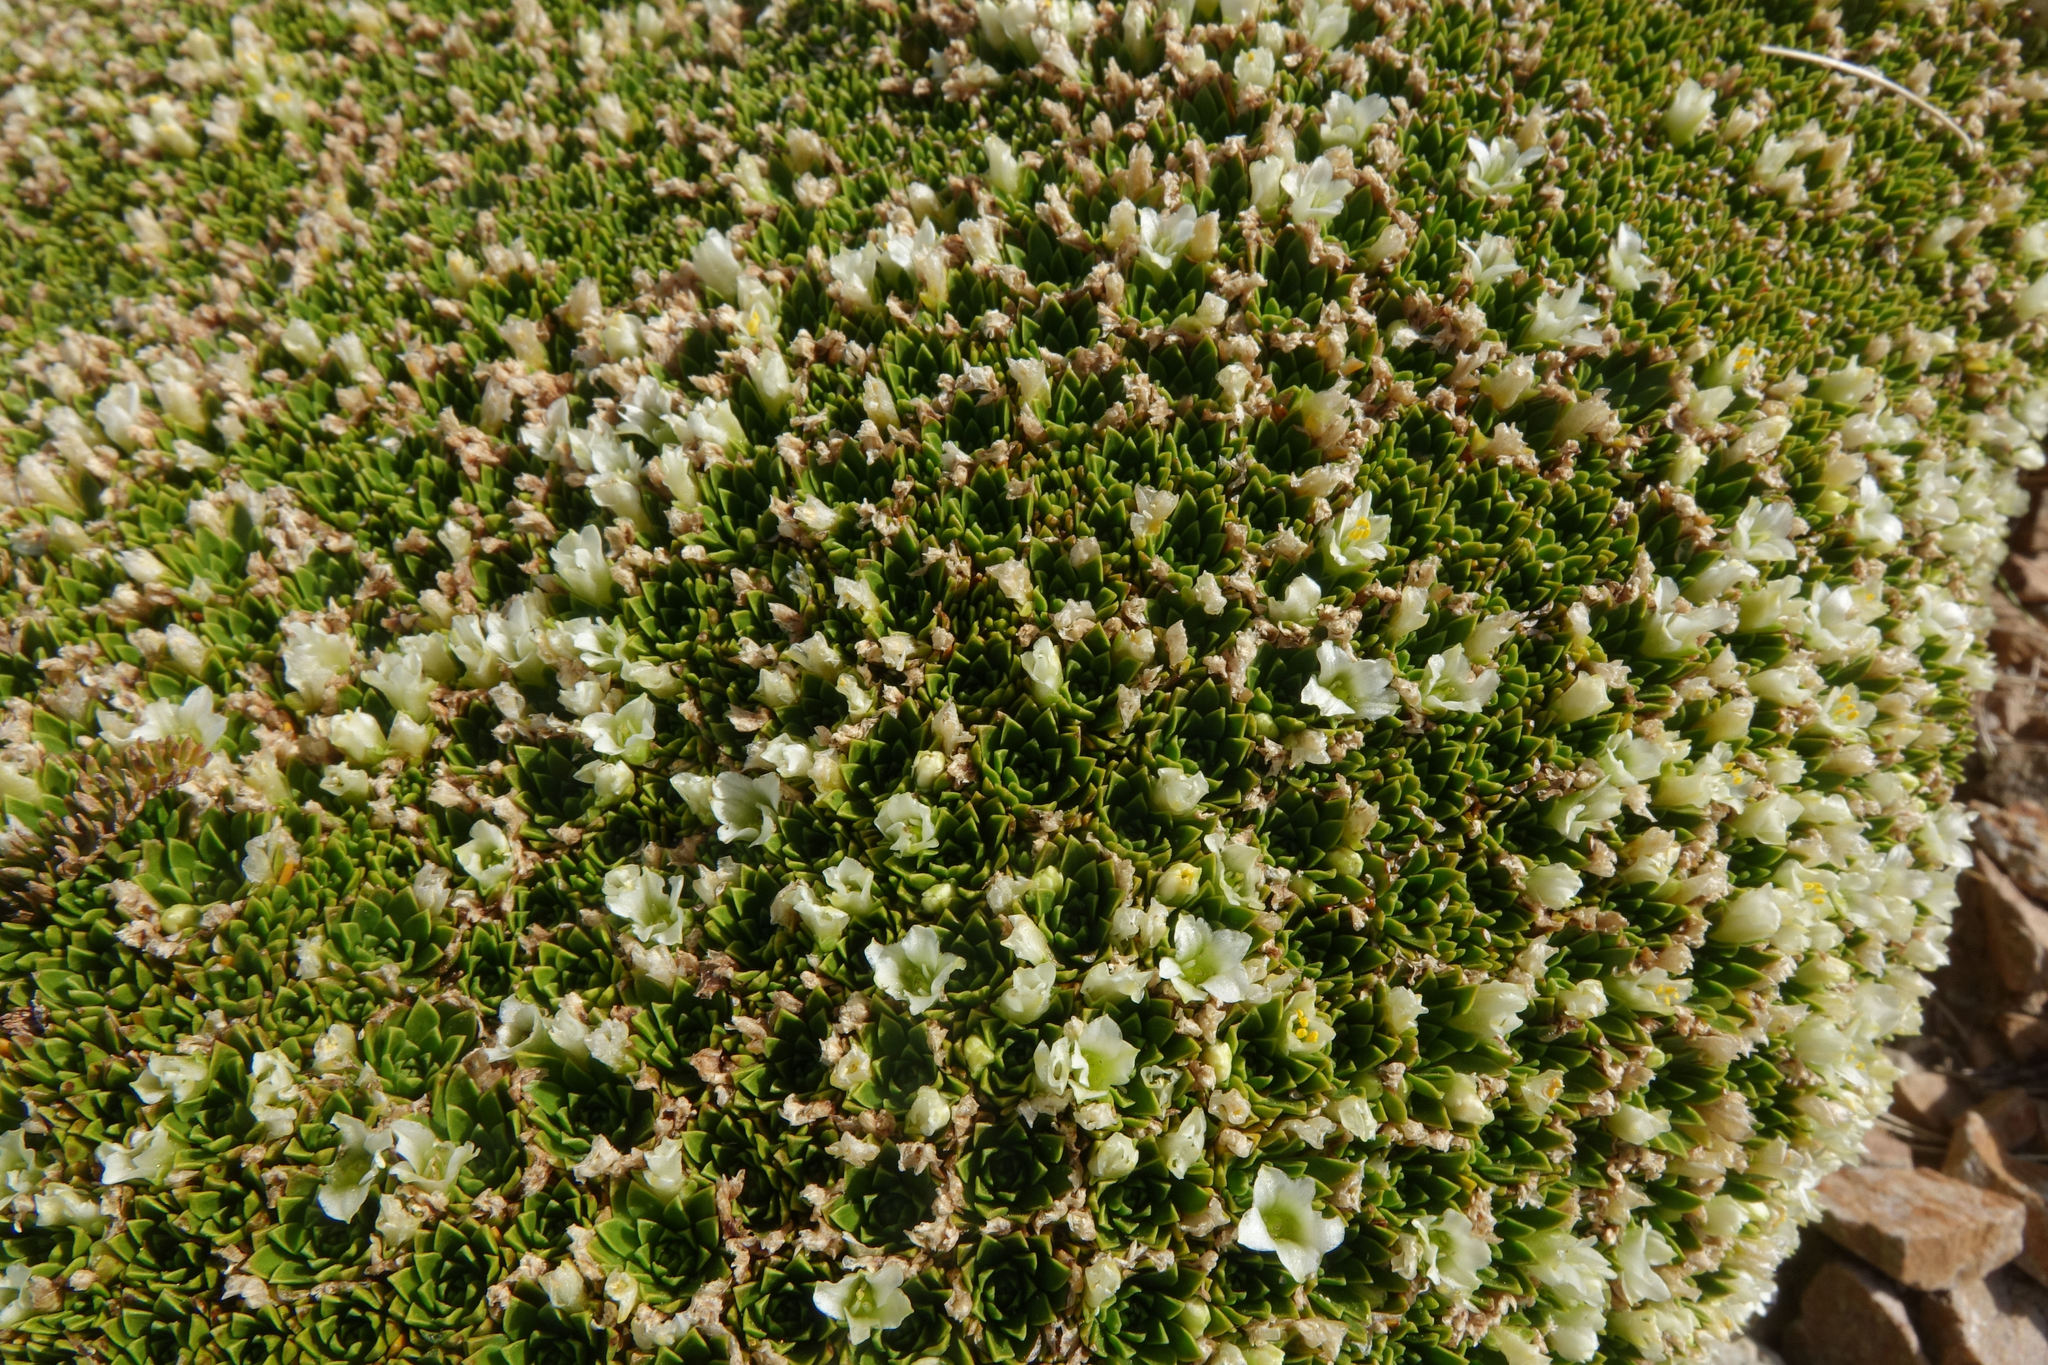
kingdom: Plantae
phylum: Tracheophyta
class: Magnoliopsida
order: Caryophyllales
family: Montiaceae
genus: Hectorella
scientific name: Hectorella caespitosa
